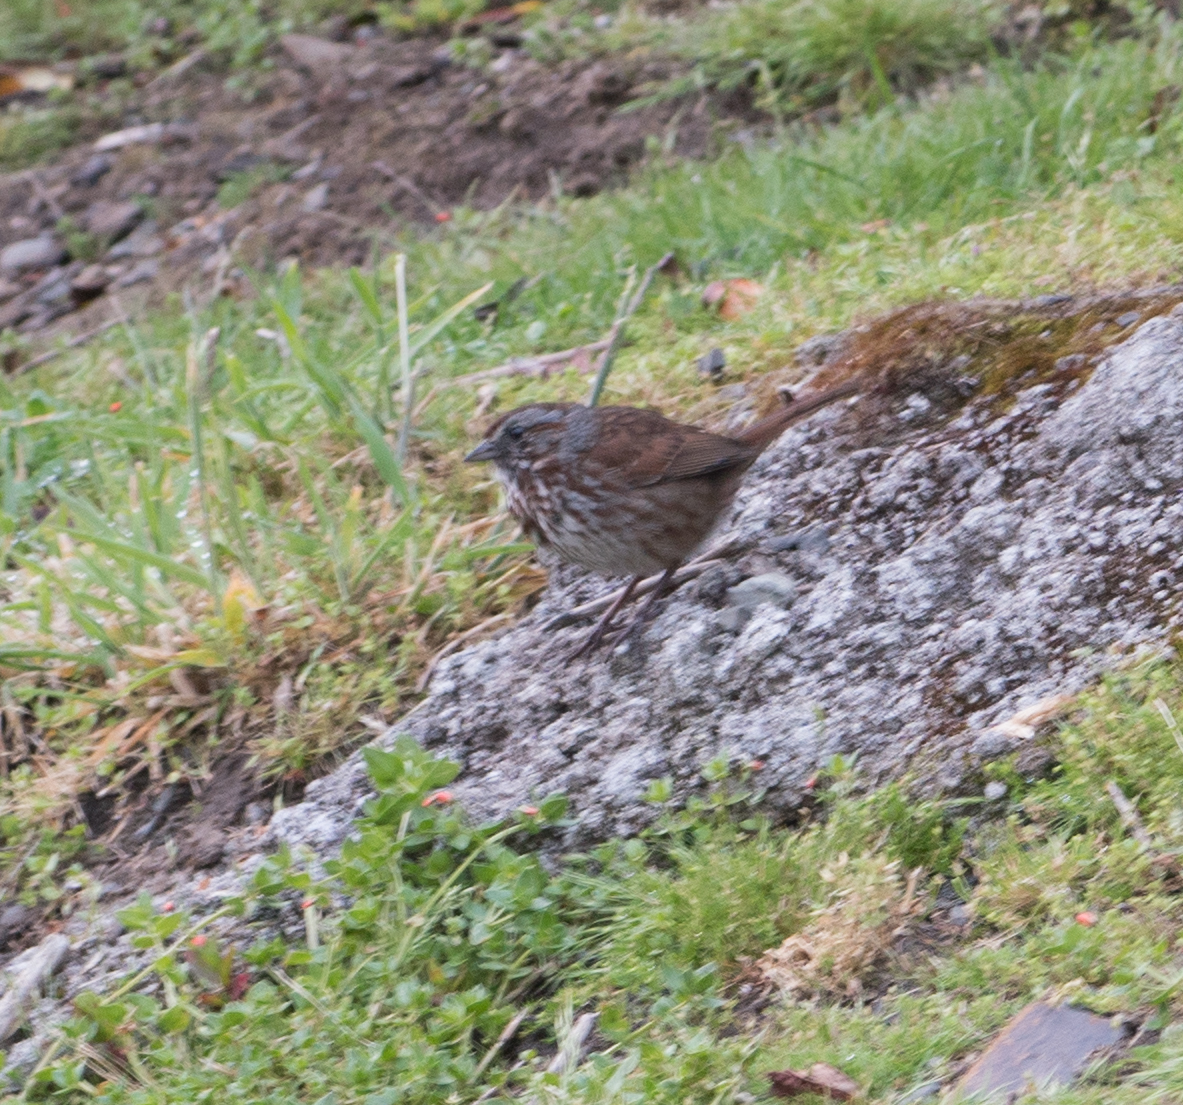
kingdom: Animalia
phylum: Chordata
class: Aves
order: Passeriformes
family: Passerellidae
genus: Melospiza
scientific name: Melospiza melodia
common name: Song sparrow
